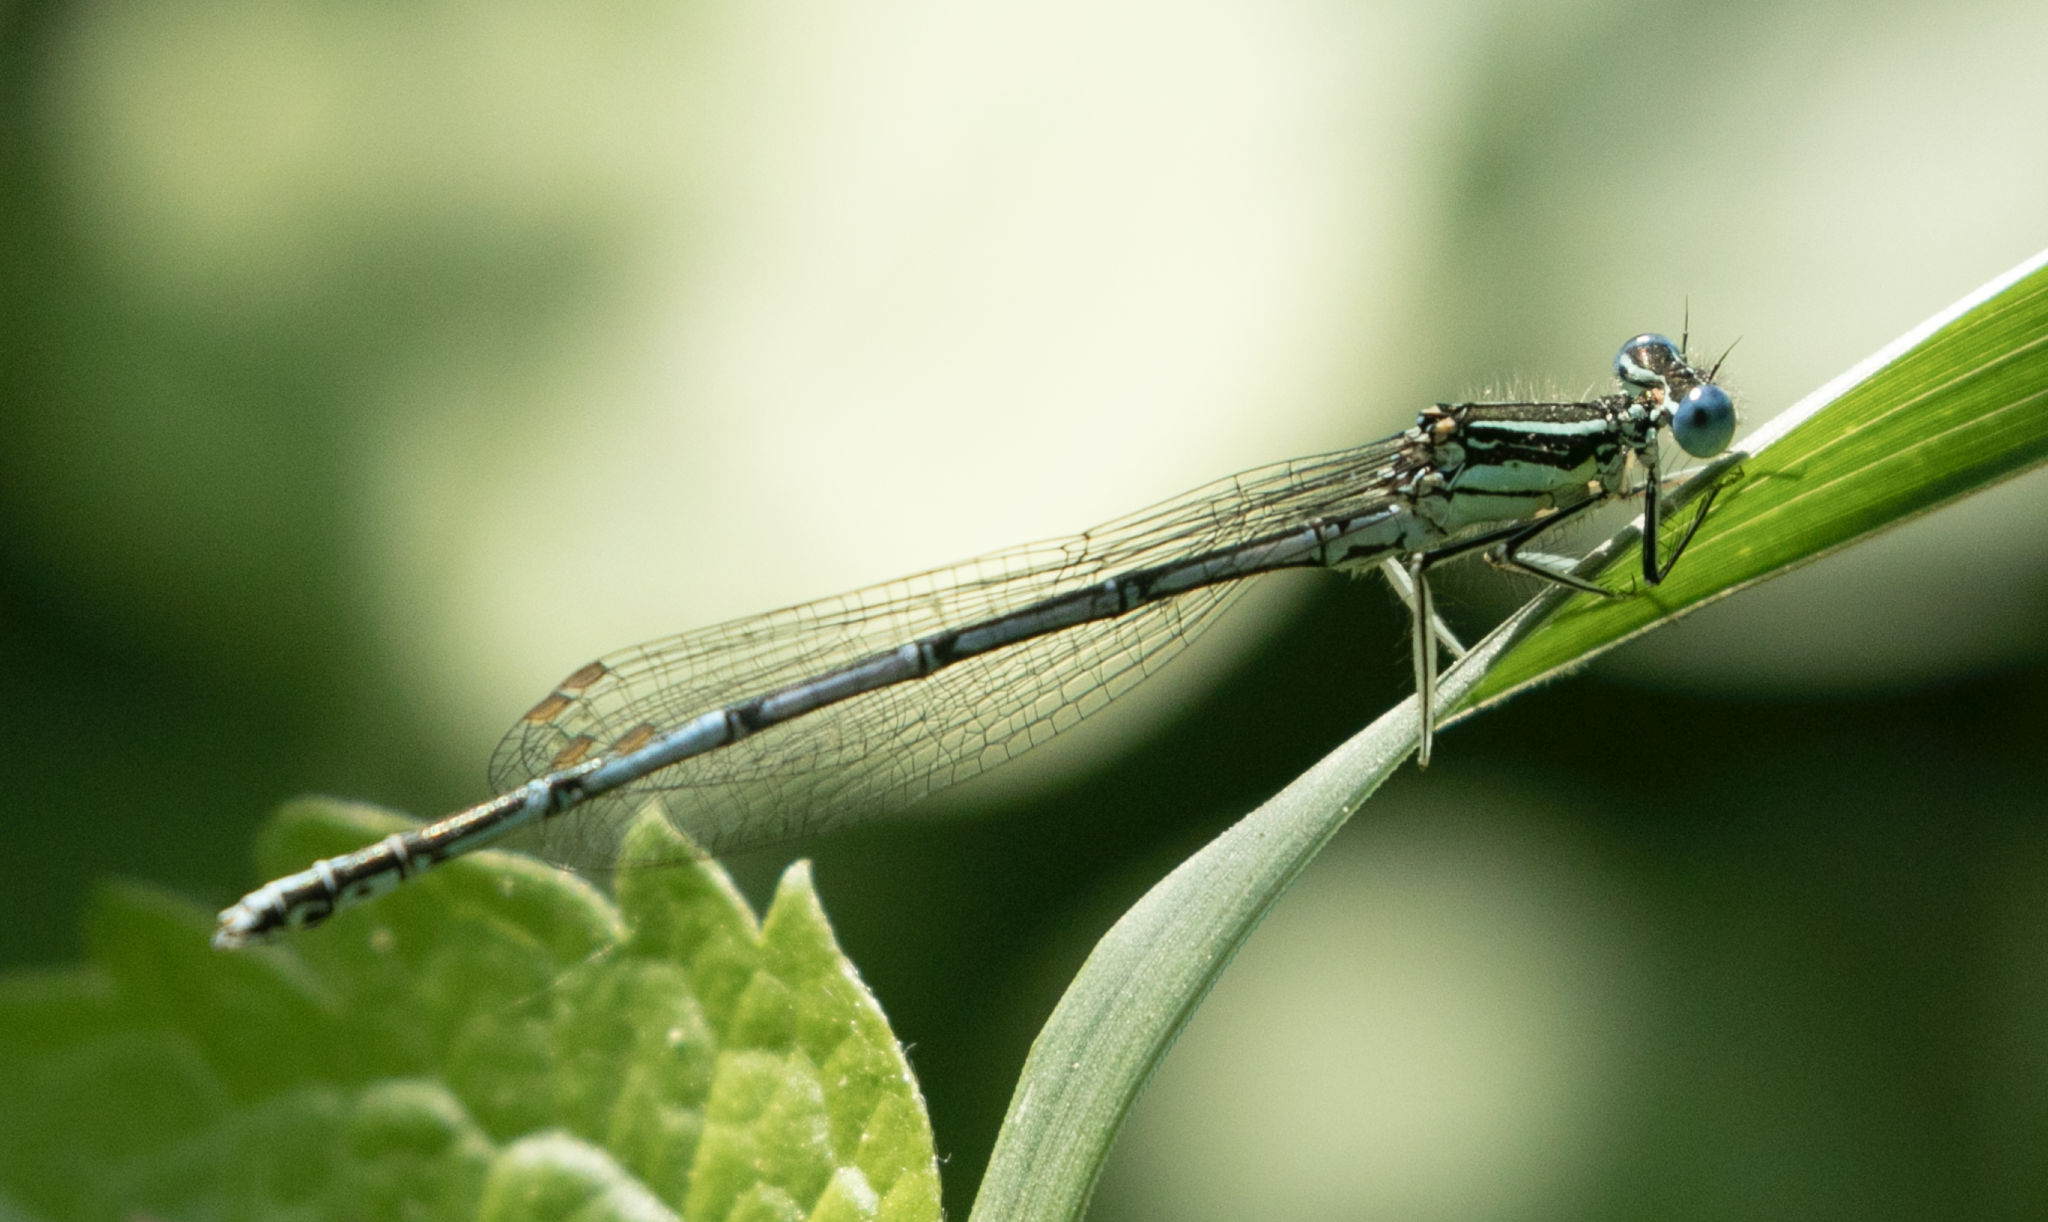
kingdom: Animalia
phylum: Arthropoda
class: Insecta
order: Odonata
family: Platycnemididae
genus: Platycnemis
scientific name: Platycnemis pennipes
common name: White-legged damselfly
